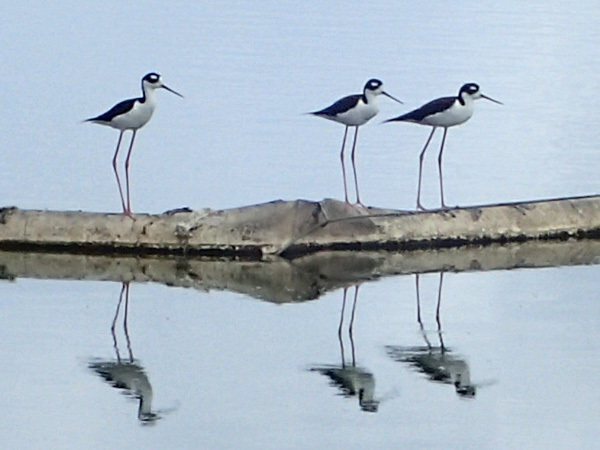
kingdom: Animalia
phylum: Chordata
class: Aves
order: Charadriiformes
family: Recurvirostridae
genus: Himantopus
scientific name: Himantopus mexicanus
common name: Black-necked stilt
